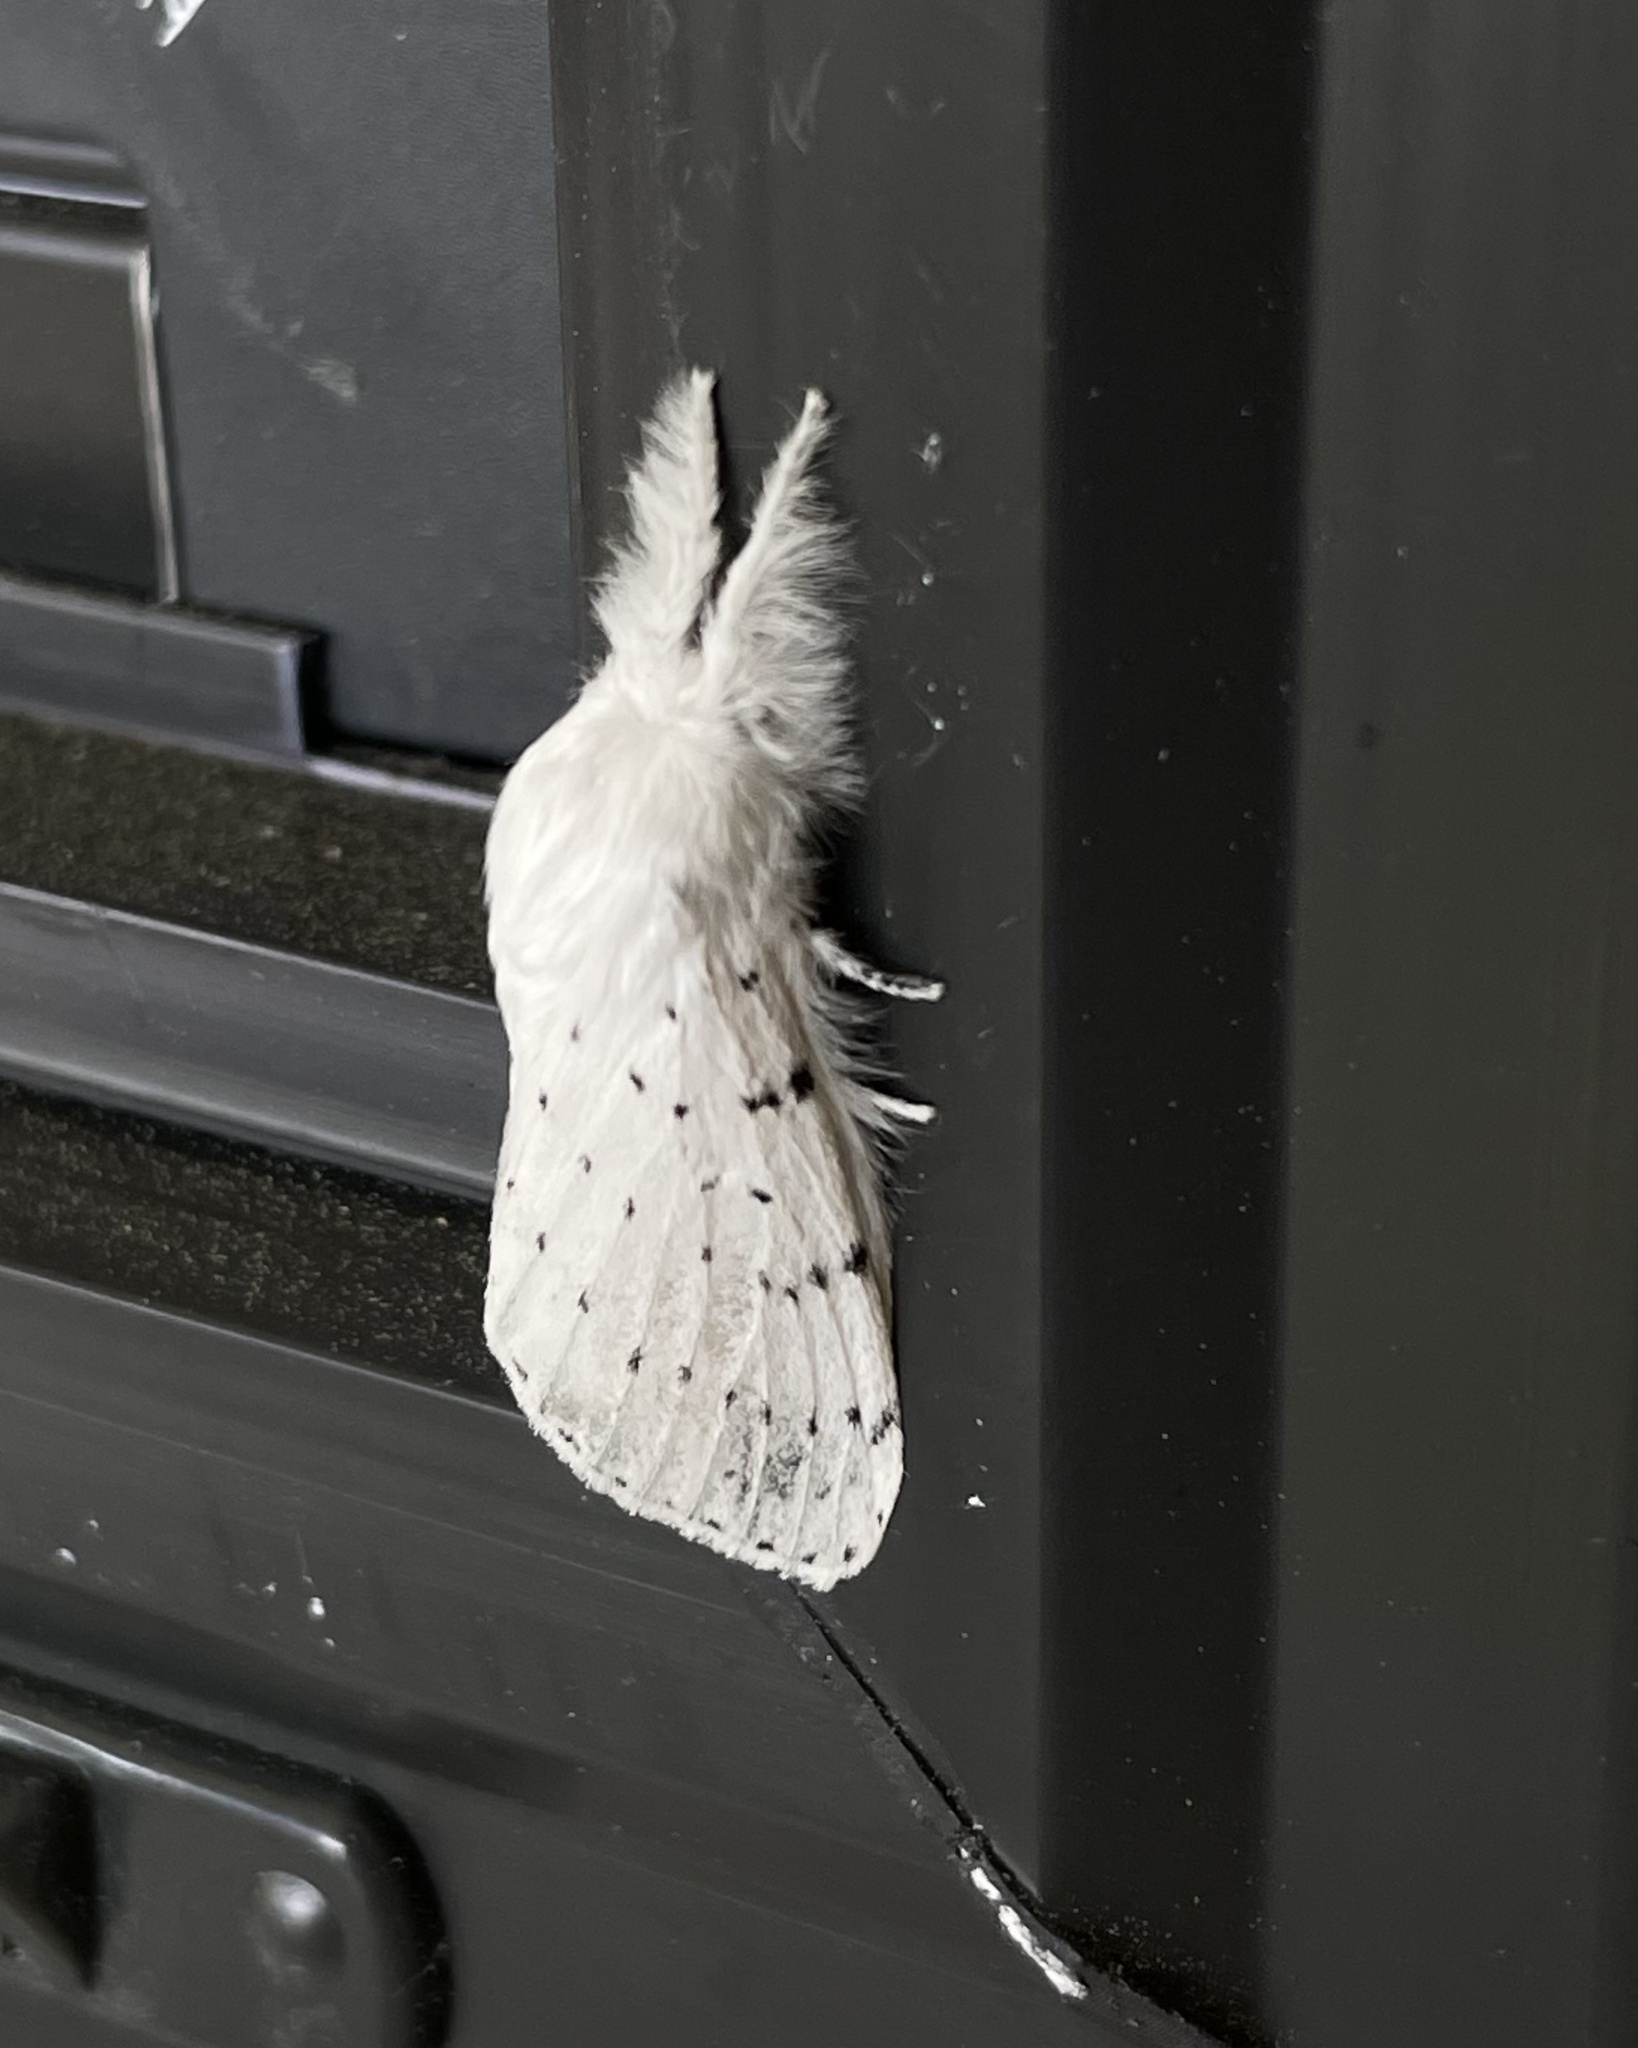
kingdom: Animalia
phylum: Arthropoda
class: Insecta
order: Lepidoptera
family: Lasiocampidae
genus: Artace
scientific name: Artace cribrarius
